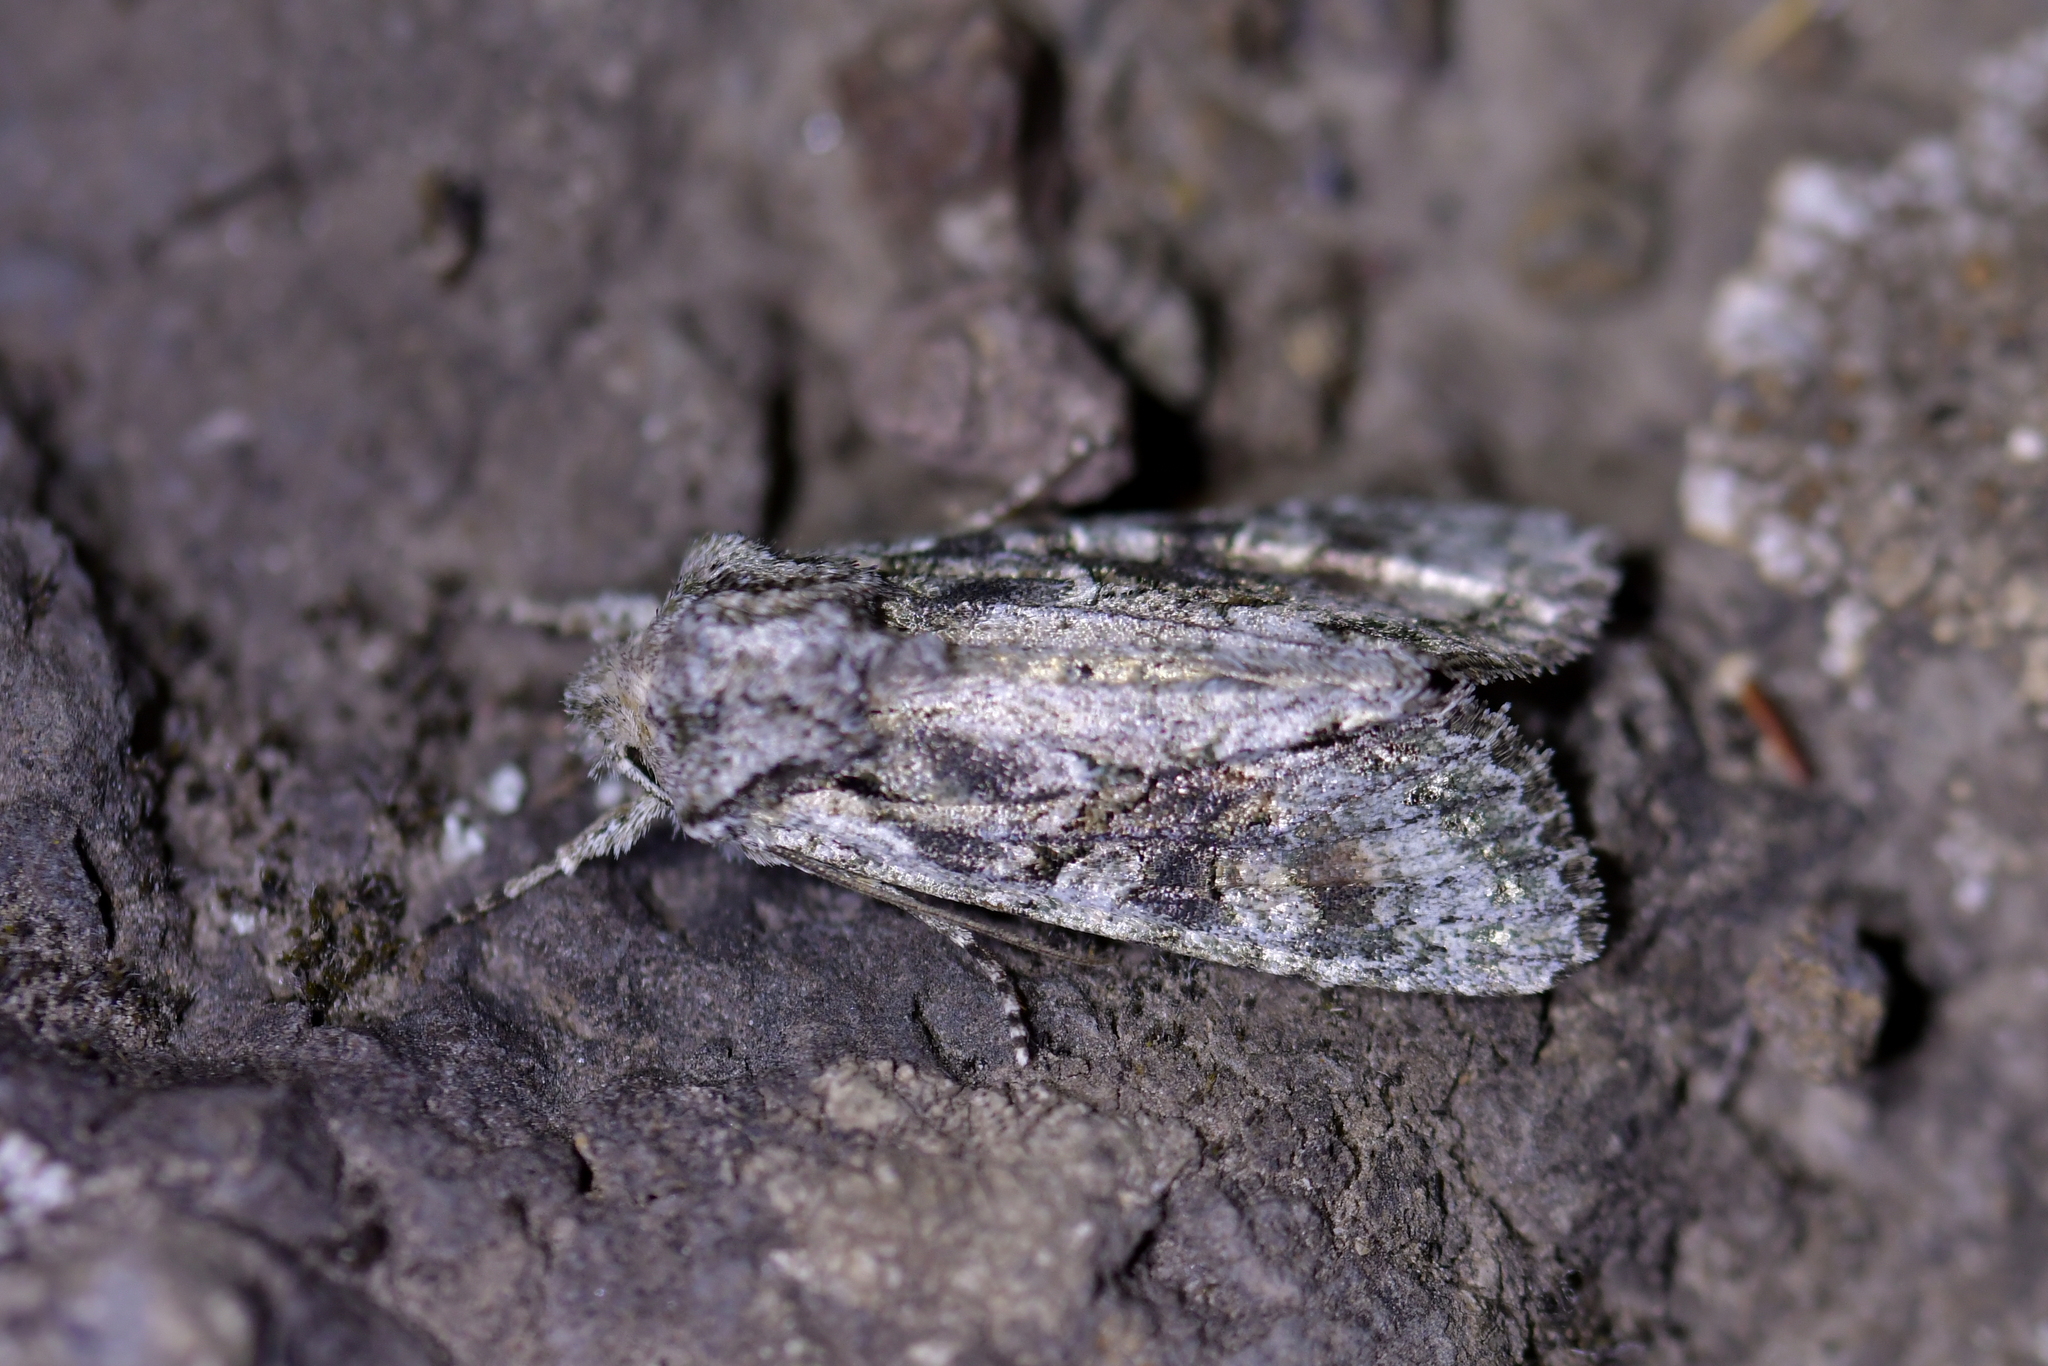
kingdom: Animalia
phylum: Arthropoda
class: Insecta
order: Lepidoptera
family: Noctuidae
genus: Ichneutica
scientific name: Ichneutica mutans
